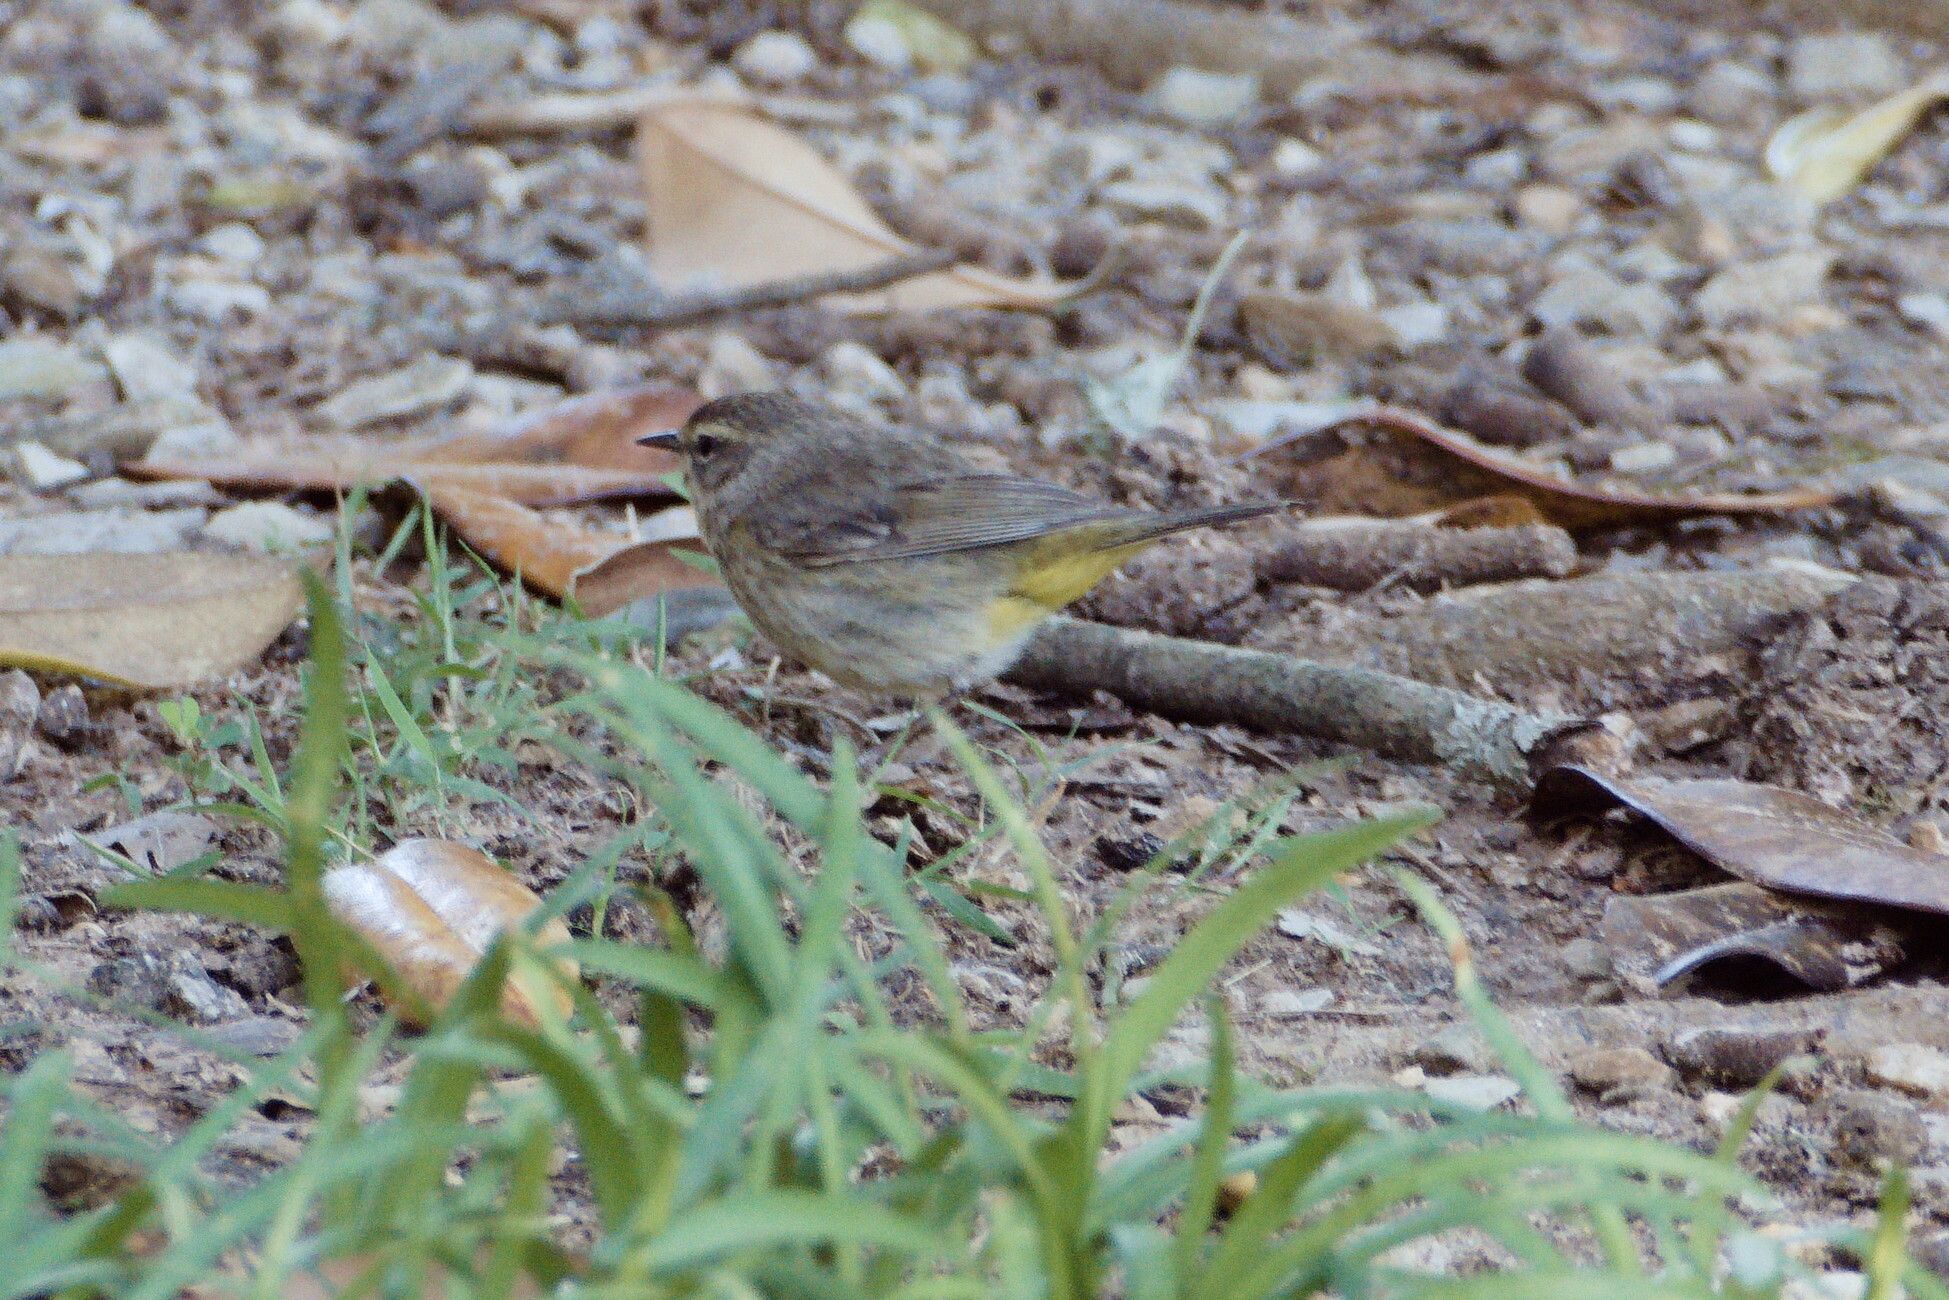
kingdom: Animalia
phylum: Chordata
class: Aves
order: Passeriformes
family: Parulidae
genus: Setophaga
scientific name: Setophaga palmarum
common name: Palm warbler
